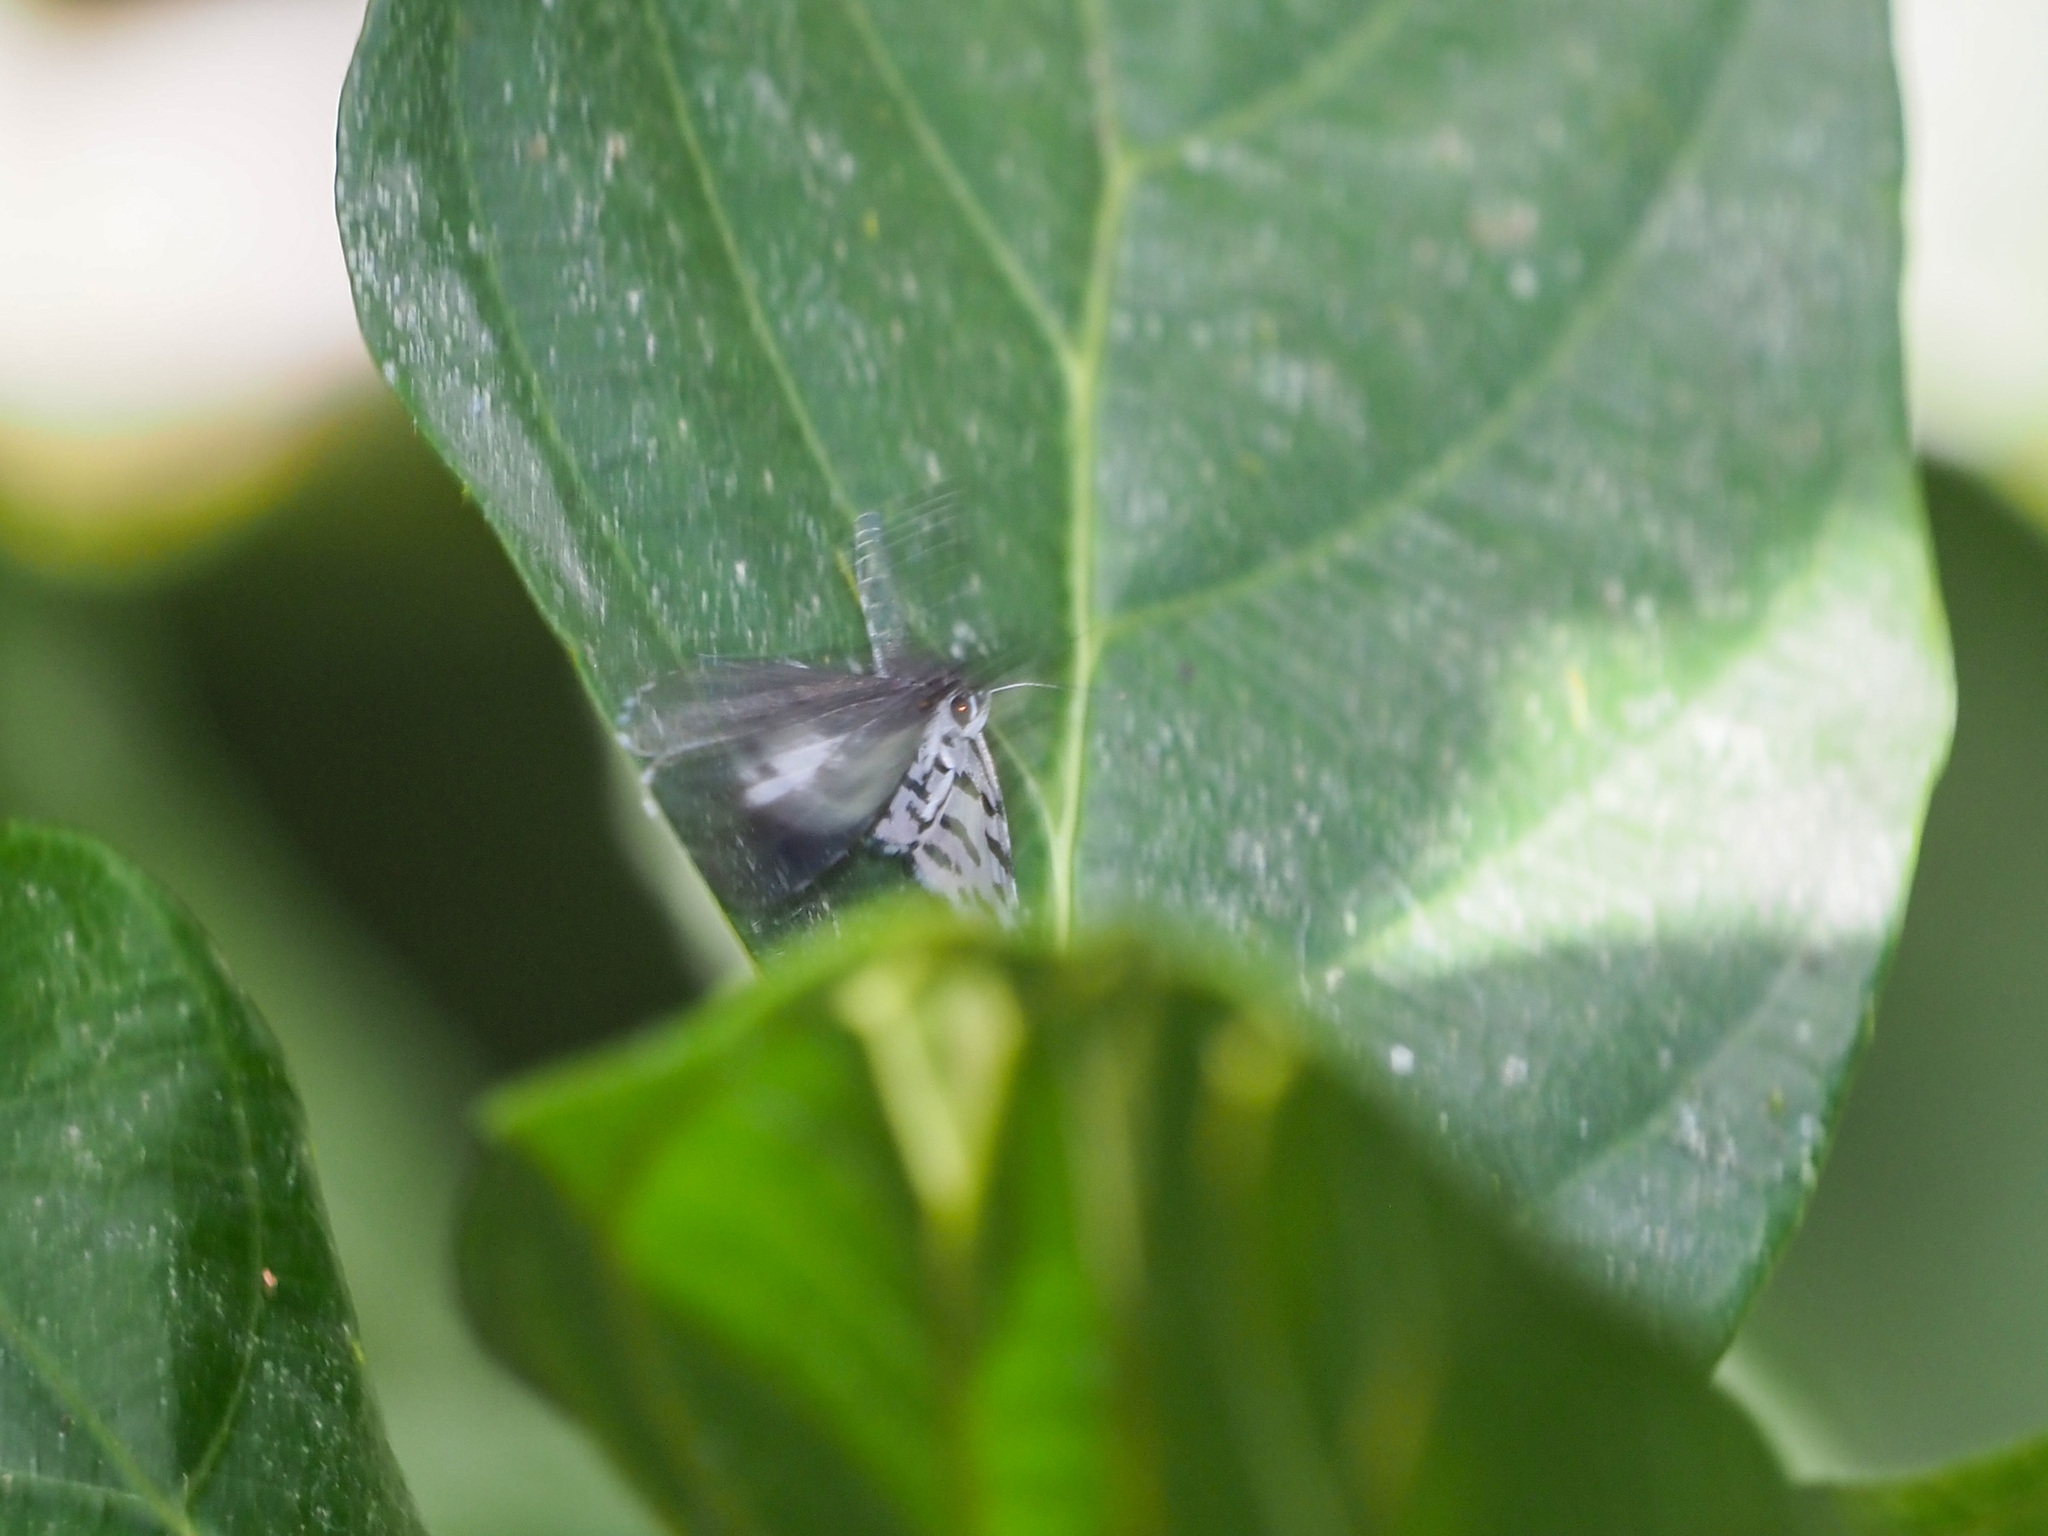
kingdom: Animalia
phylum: Arthropoda
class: Insecta
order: Lepidoptera
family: Lycaenidae
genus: Taraka
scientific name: Taraka hamada
